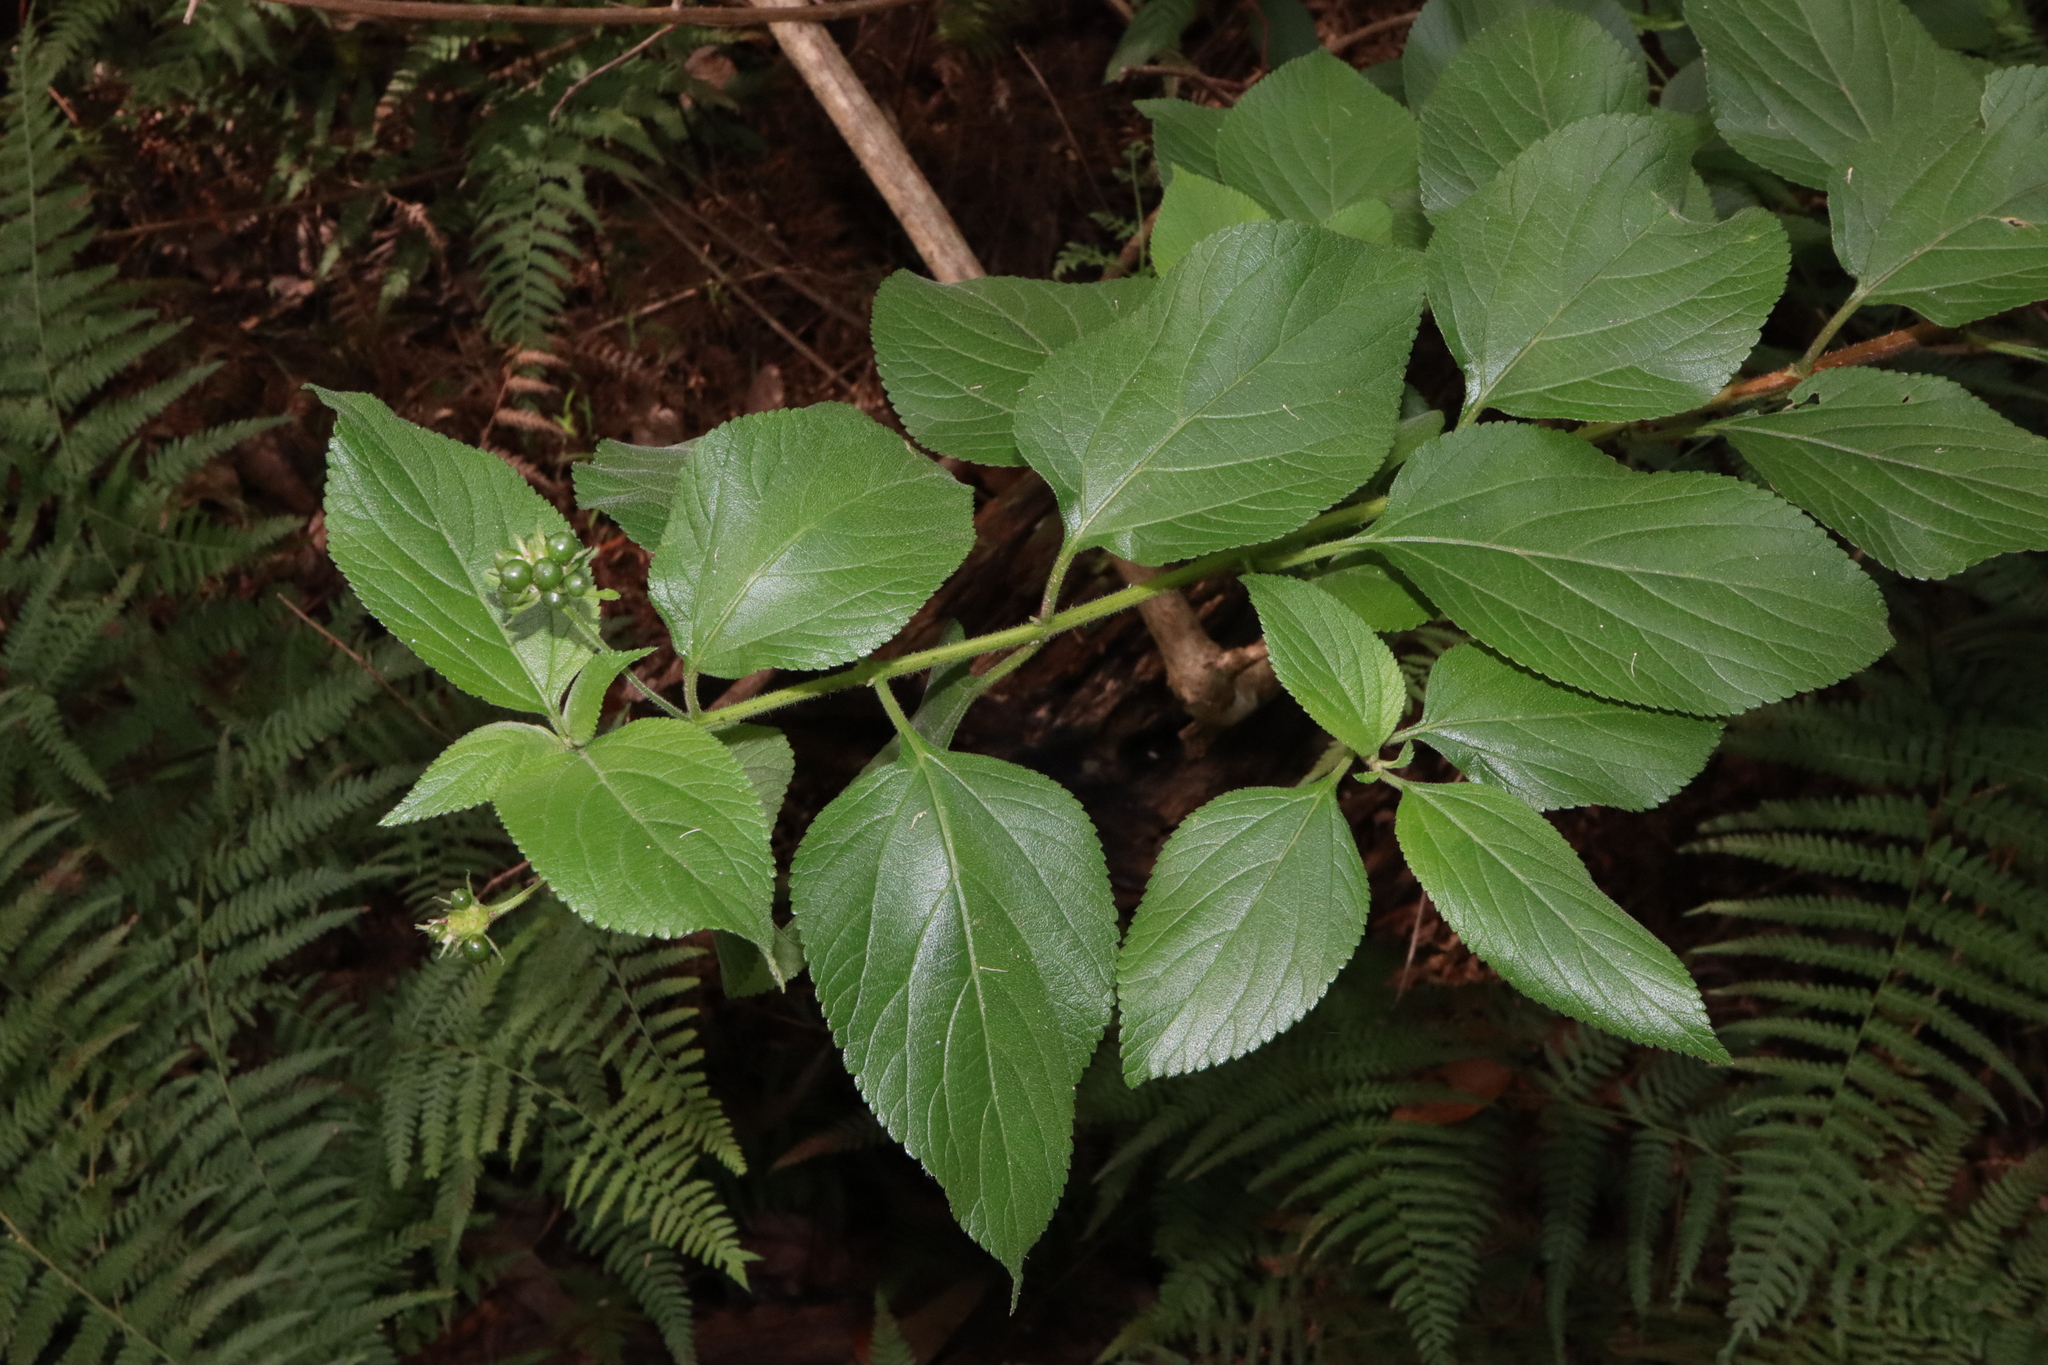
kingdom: Plantae
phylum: Tracheophyta
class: Magnoliopsida
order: Lamiales
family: Verbenaceae
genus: Lantana
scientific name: Lantana camara
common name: Lantana
